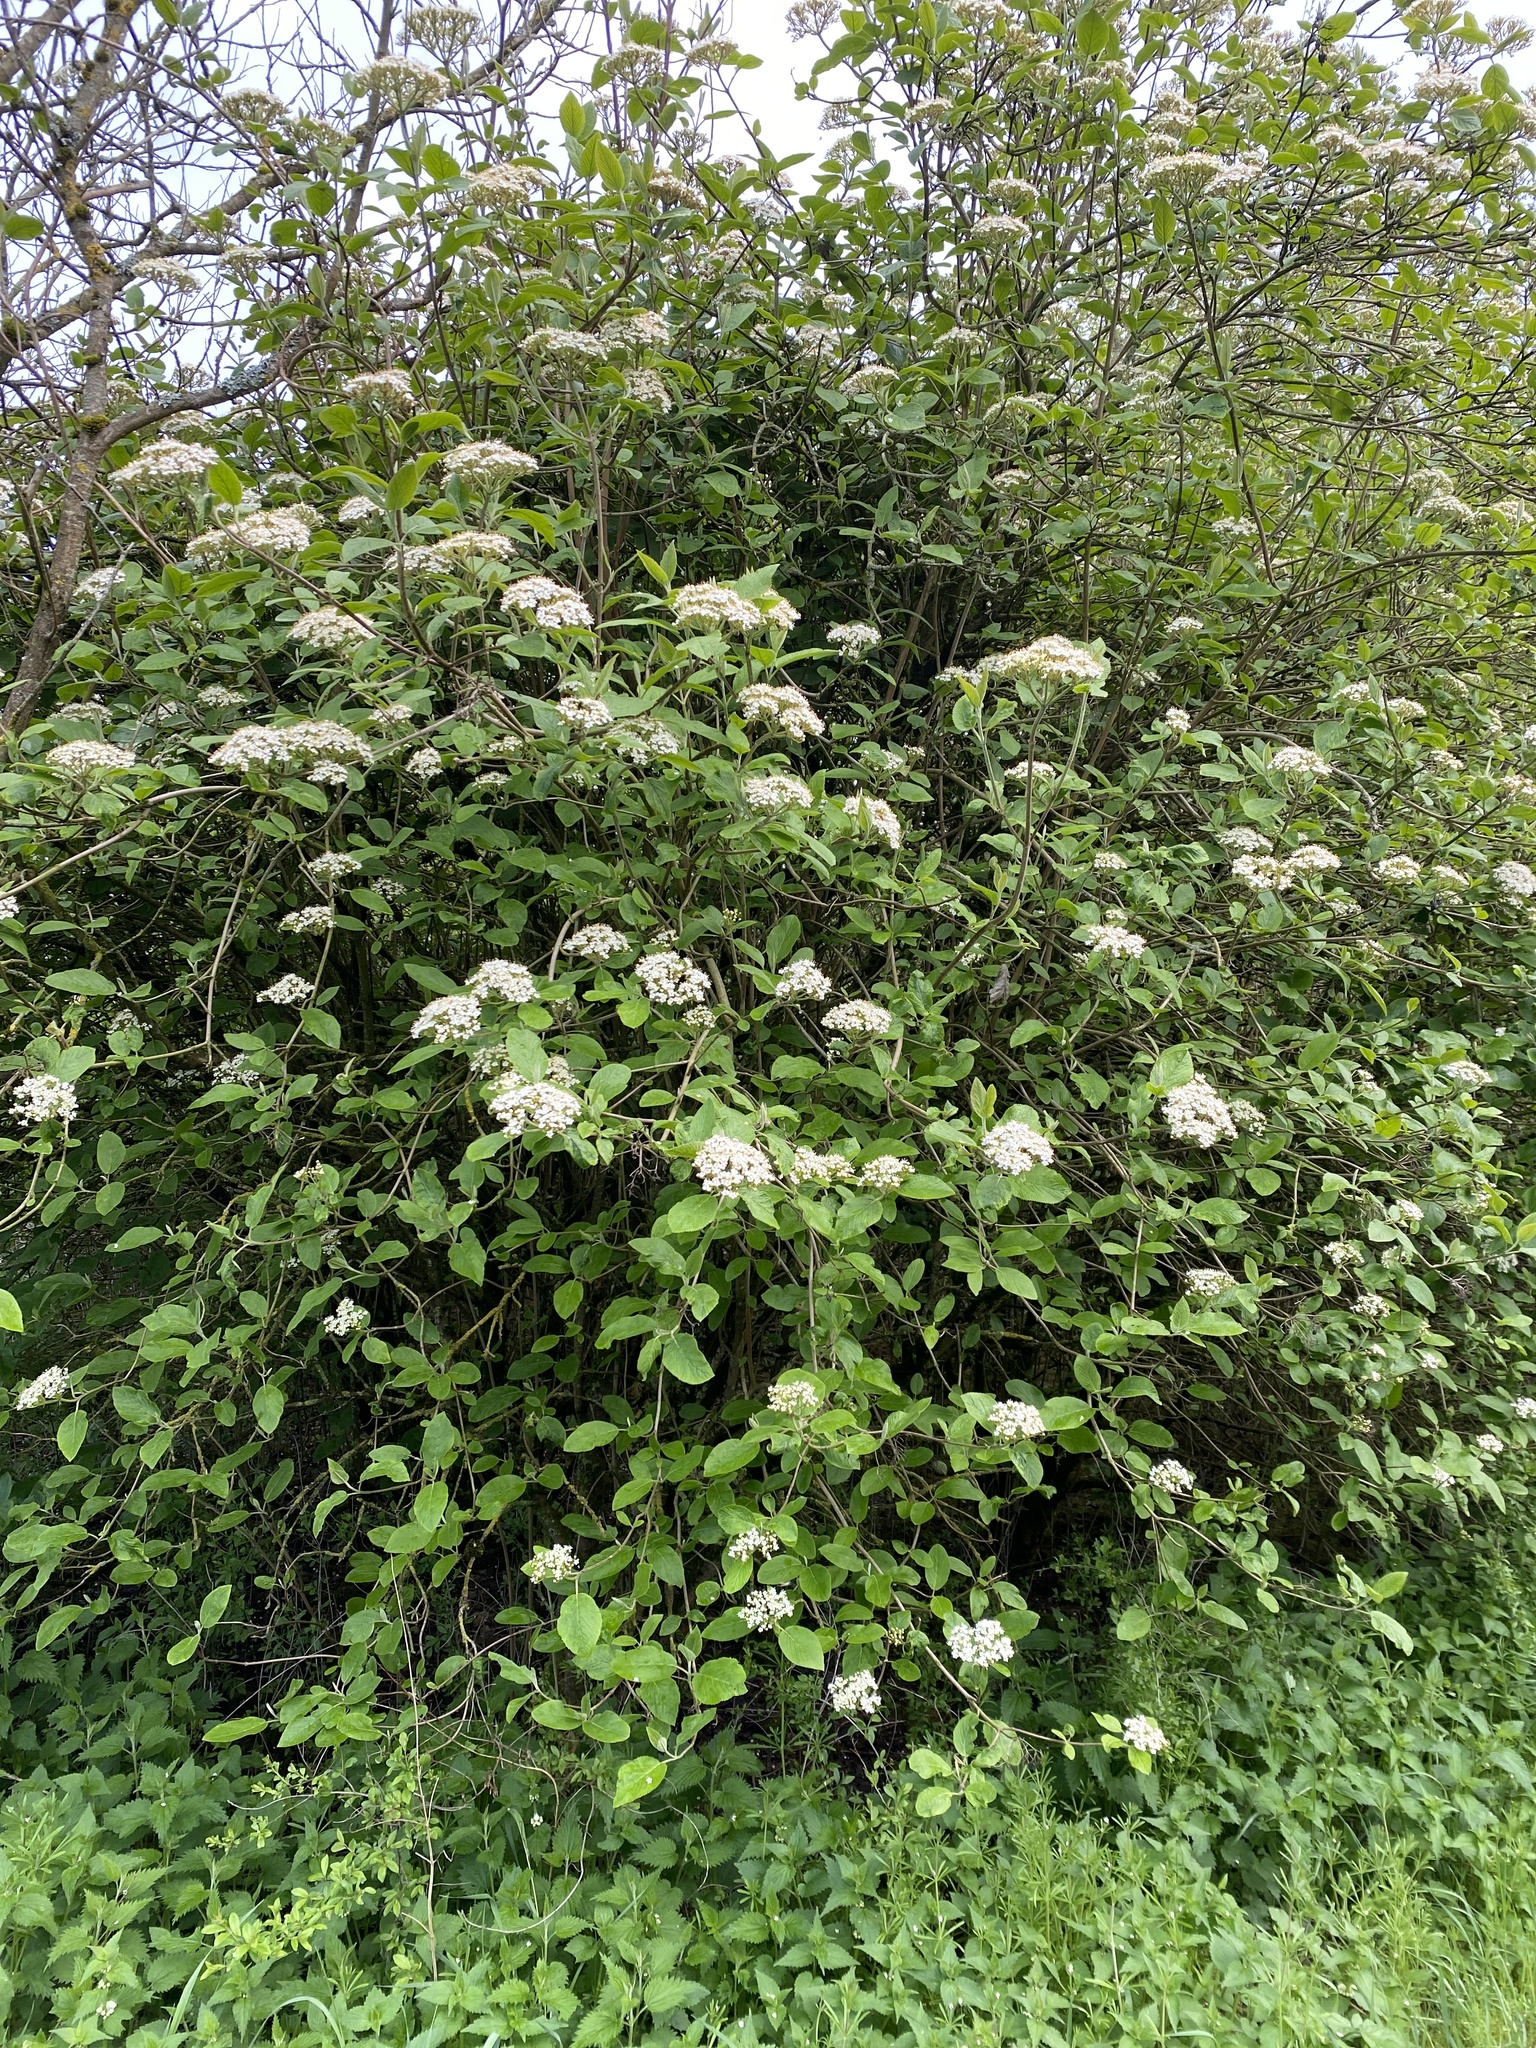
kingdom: Plantae
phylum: Tracheophyta
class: Magnoliopsida
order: Dipsacales
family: Viburnaceae
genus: Viburnum
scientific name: Viburnum lantana
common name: Wayfaring tree
